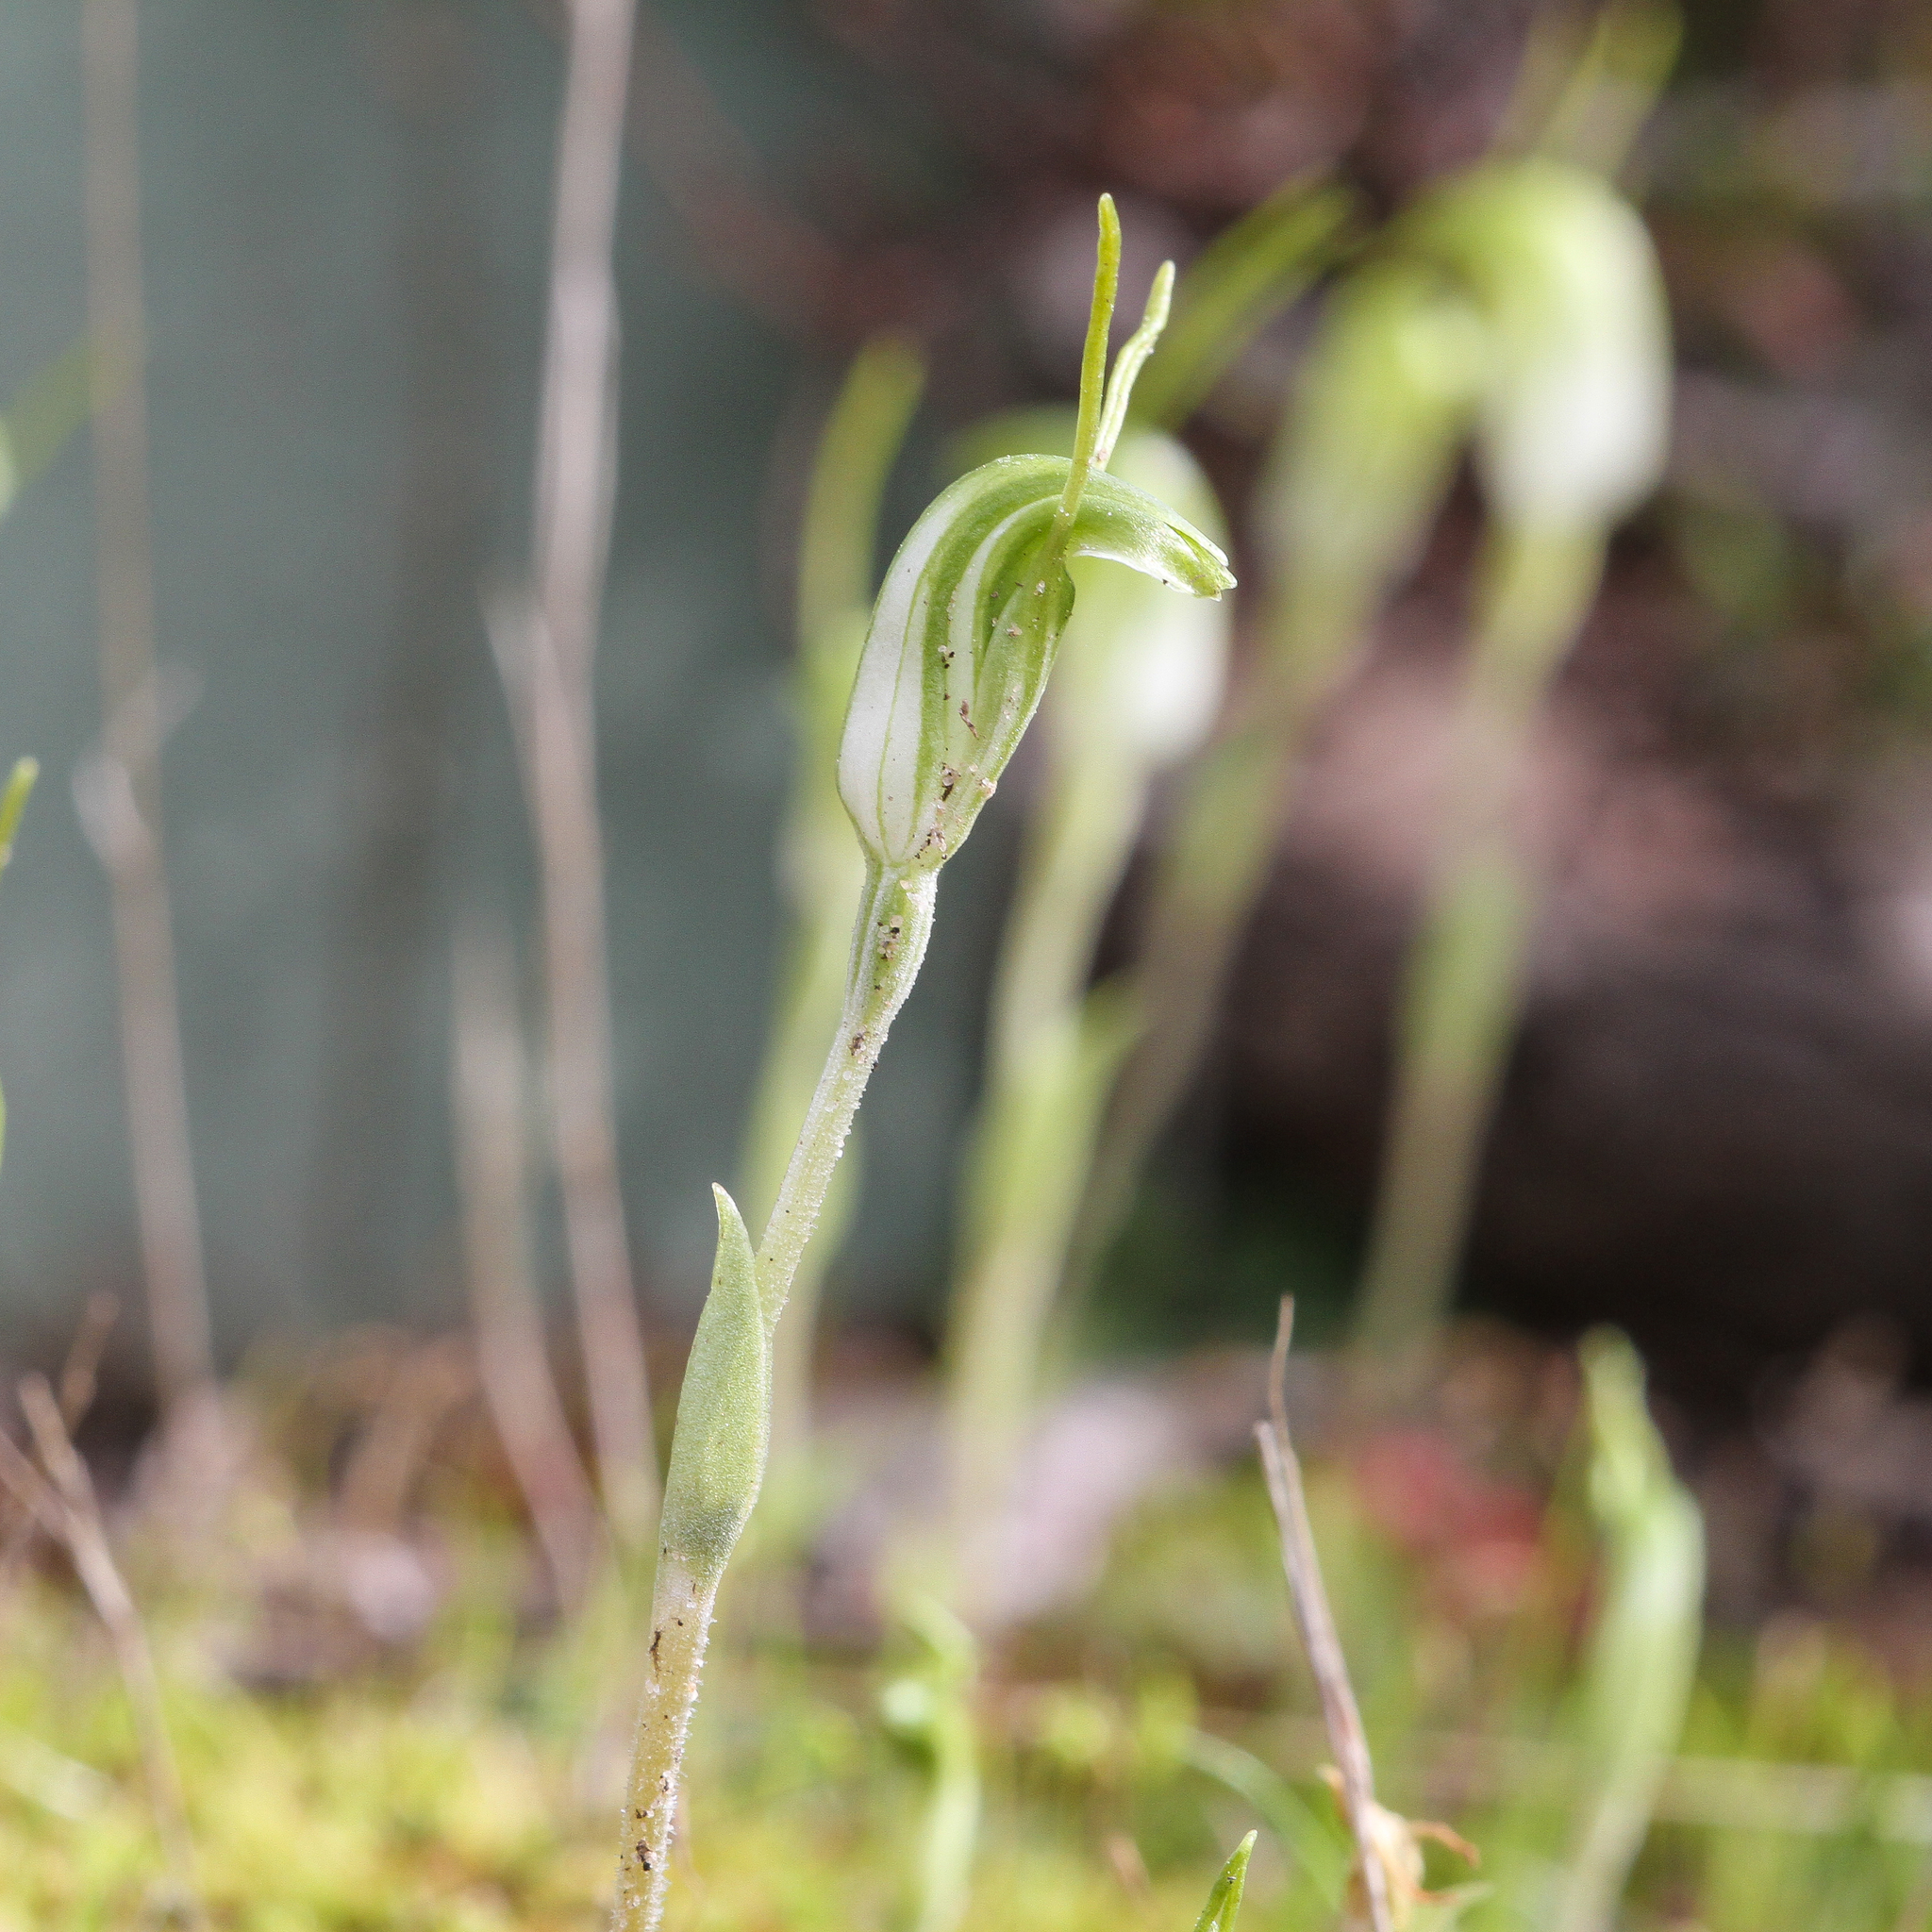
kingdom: Plantae
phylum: Tracheophyta
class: Liliopsida
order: Asparagales
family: Orchidaceae
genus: Pterostylis
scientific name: Pterostylis nana
